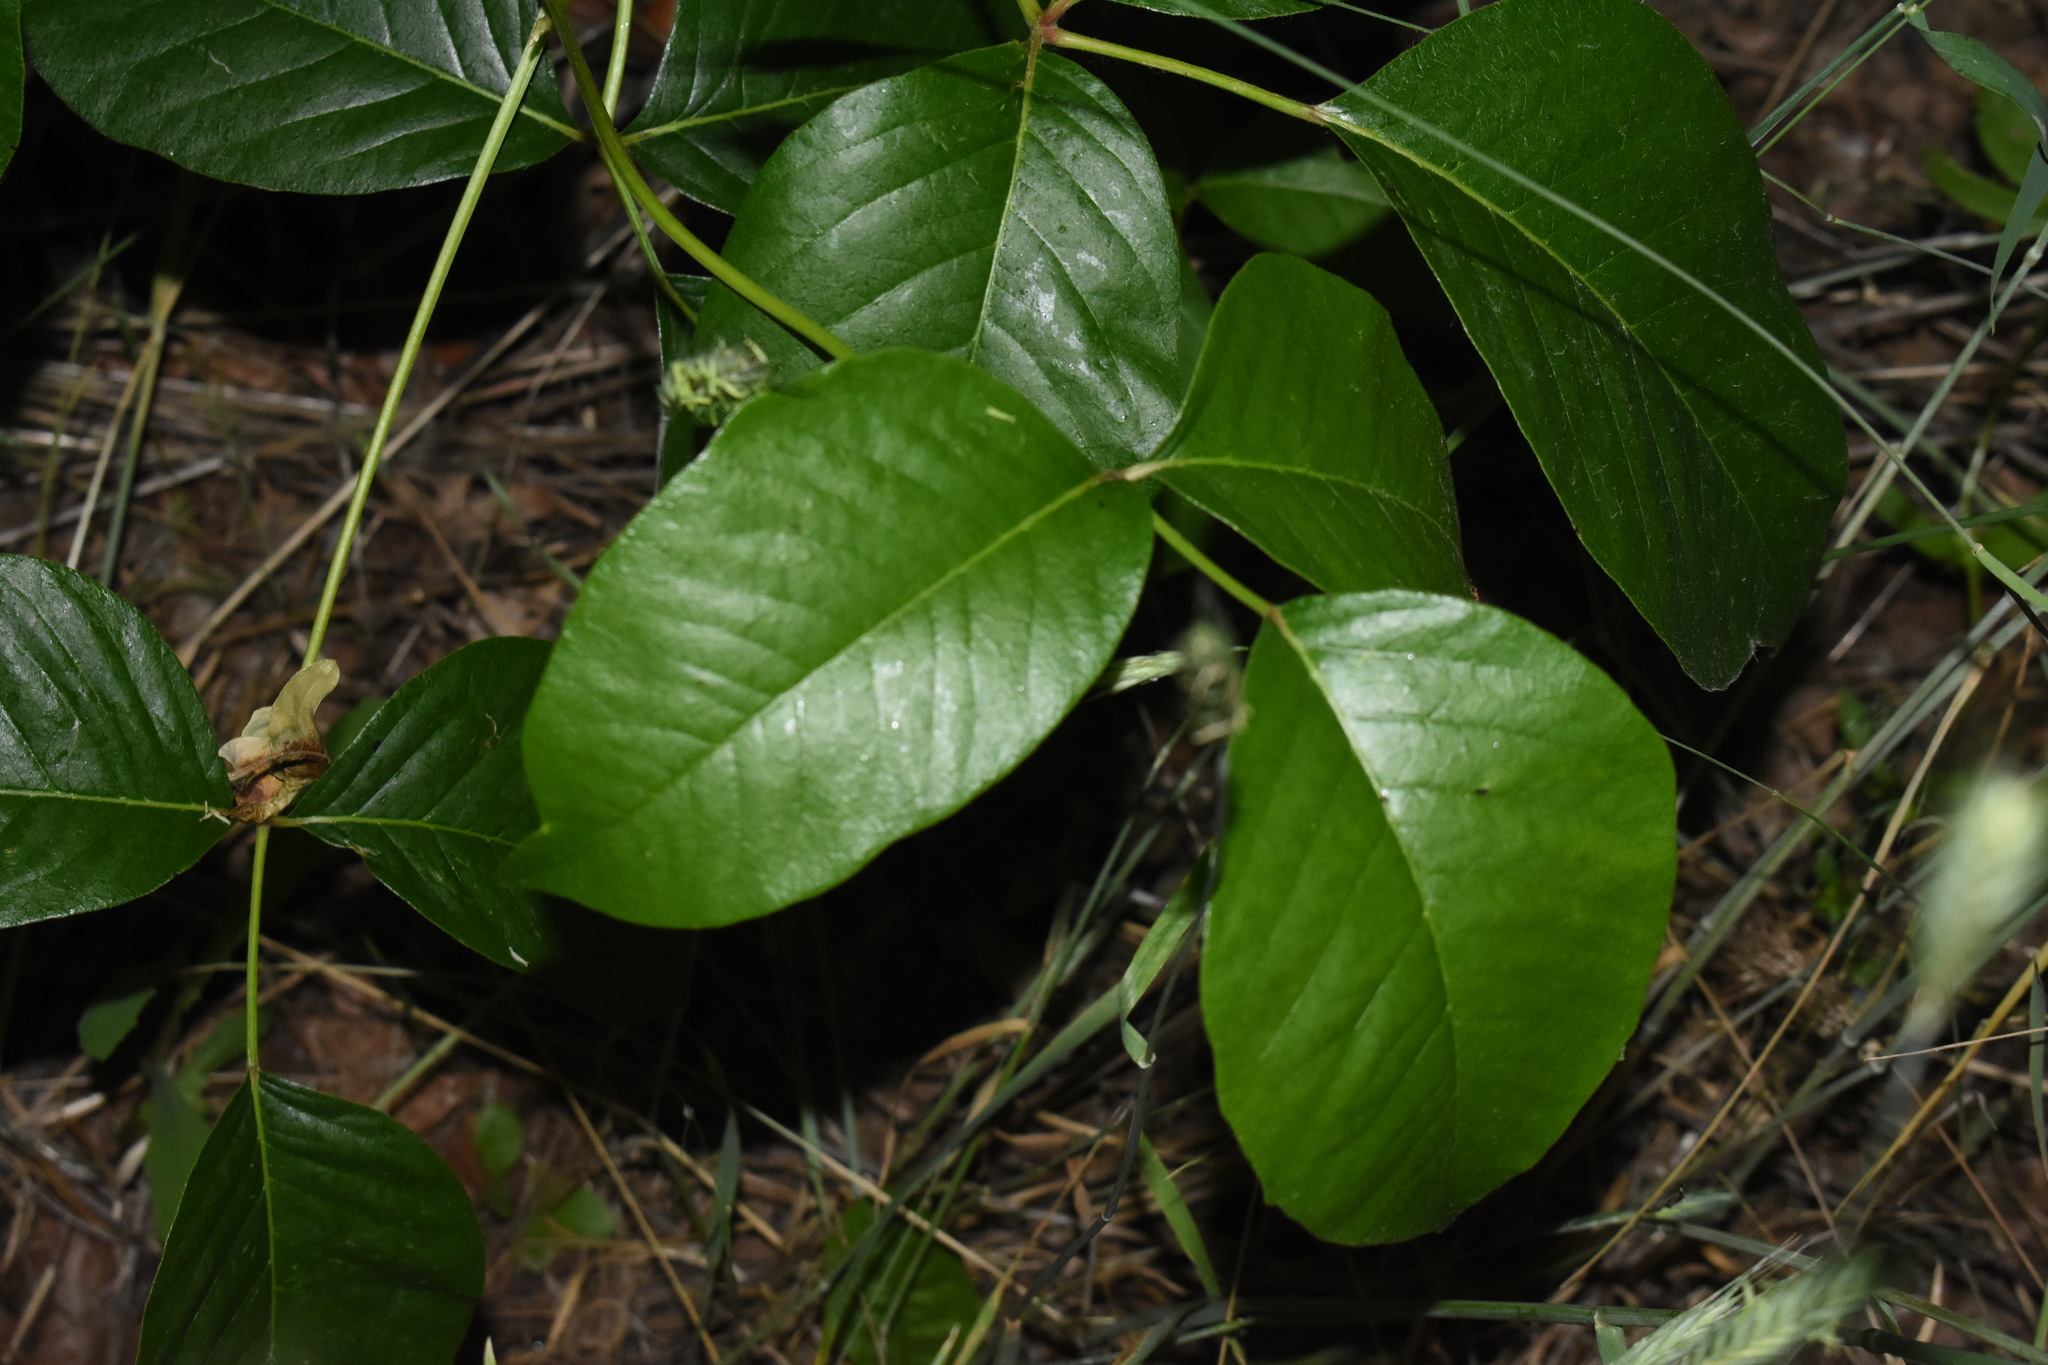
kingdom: Plantae
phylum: Tracheophyta
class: Magnoliopsida
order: Sapindales
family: Anacardiaceae
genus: Toxicodendron
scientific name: Toxicodendron rydbergii
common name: Rydberg's poison-ivy
